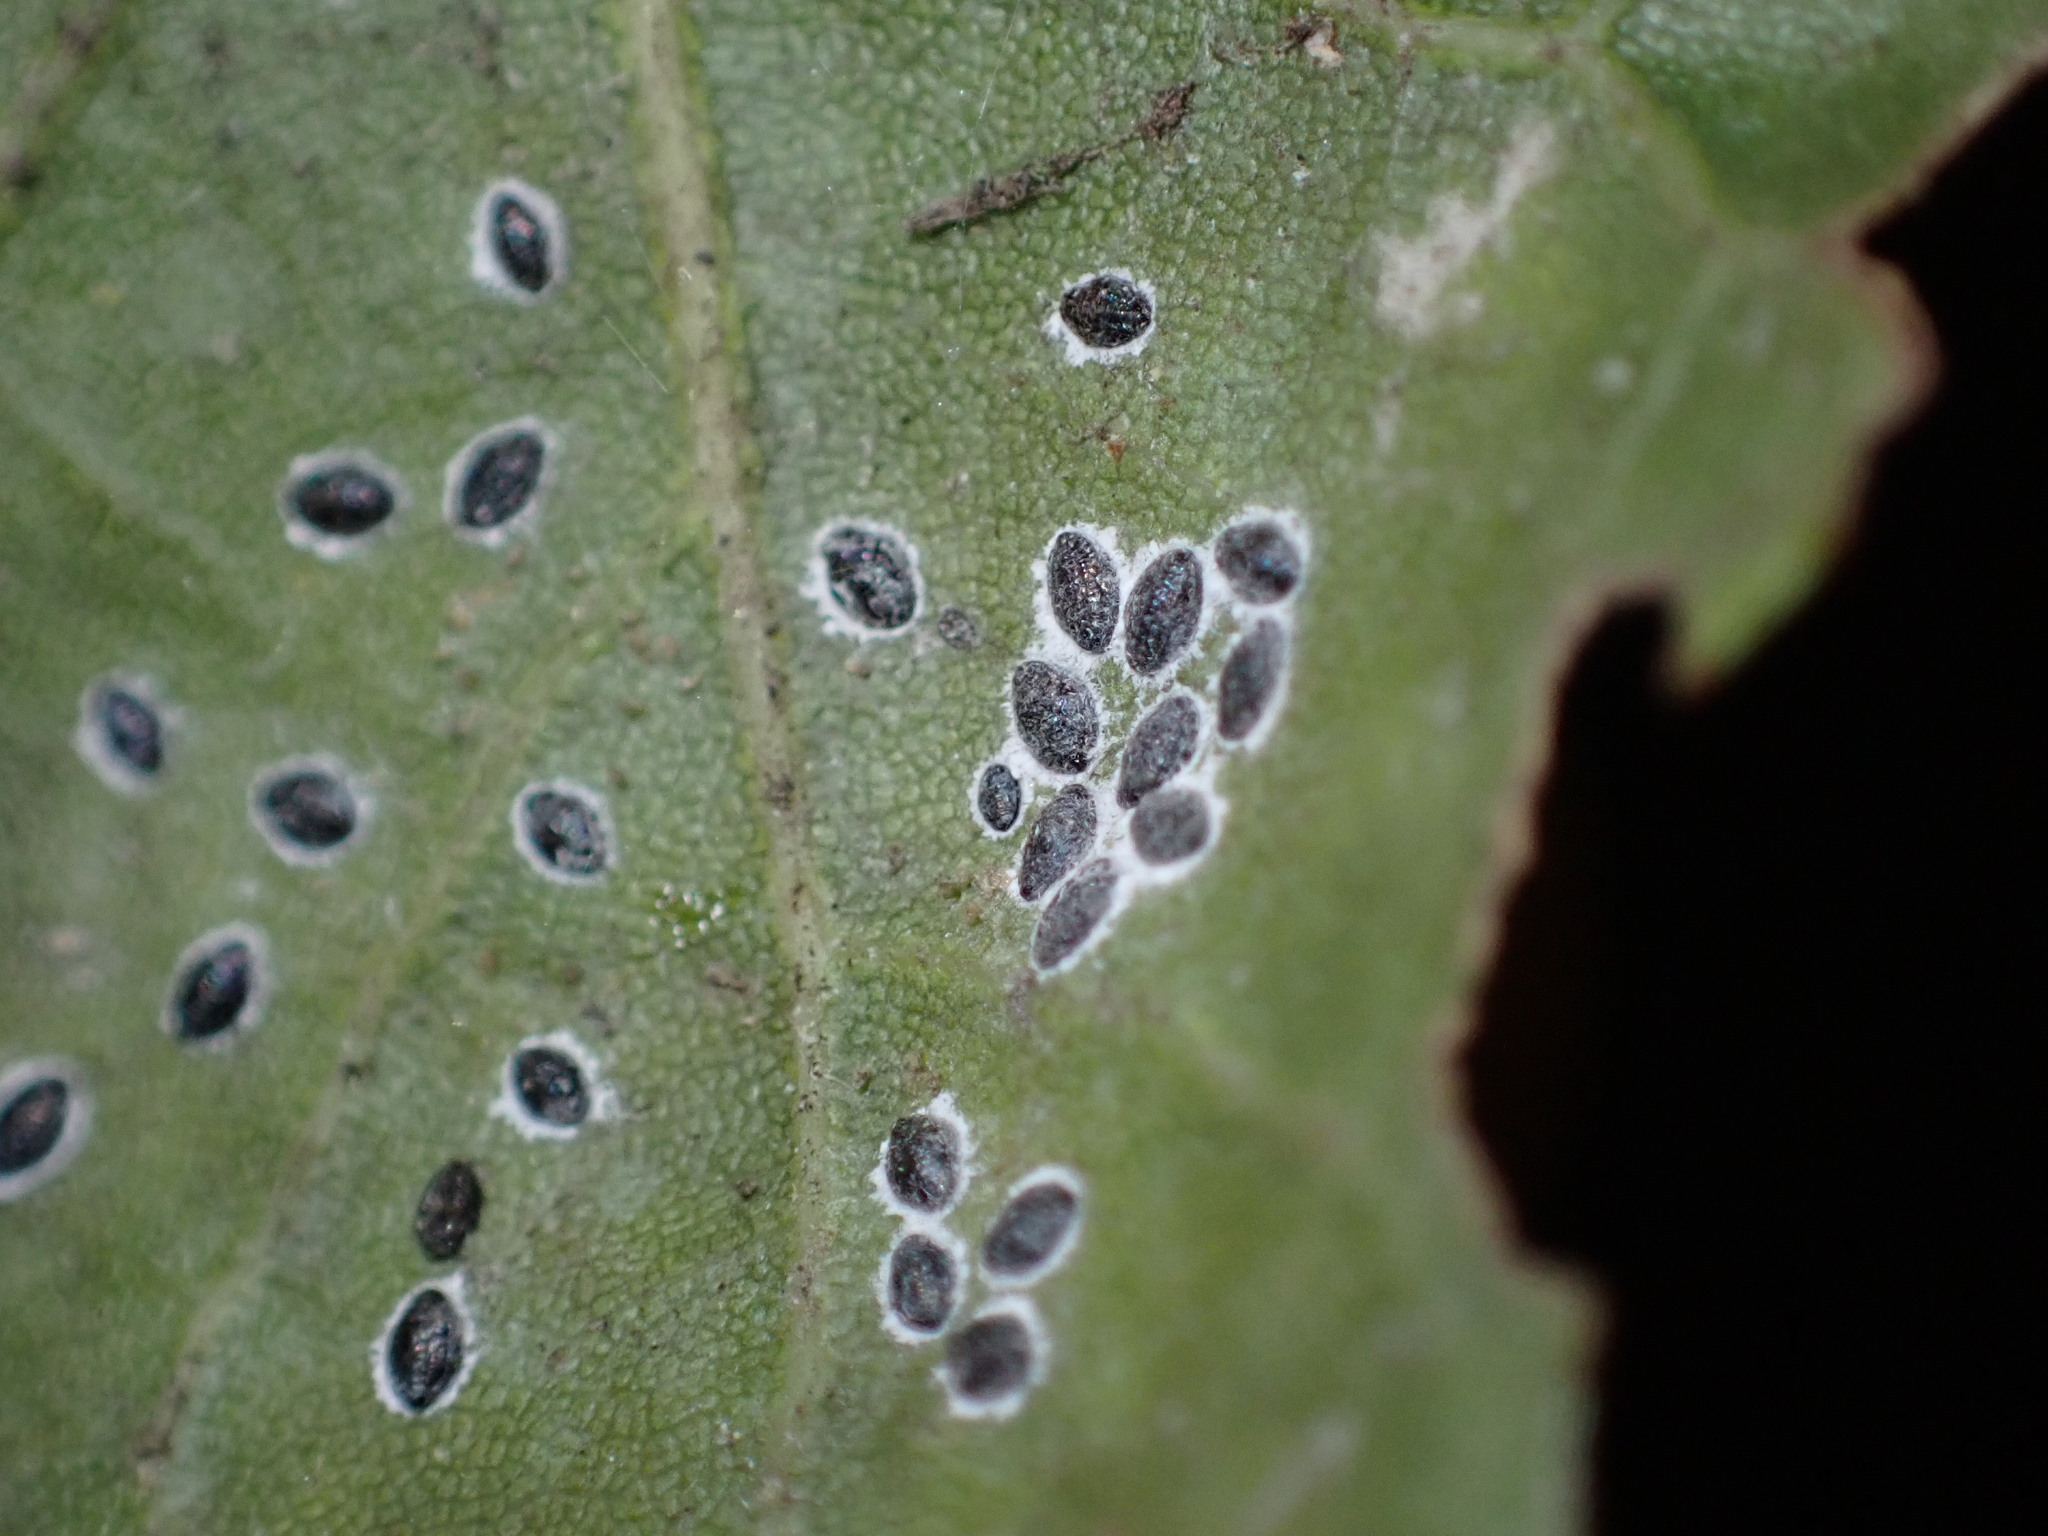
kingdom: Animalia
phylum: Arthropoda
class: Insecta
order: Hemiptera
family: Aleyrodidae
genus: Tetraleurodes
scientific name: Tetraleurodes perileuca
